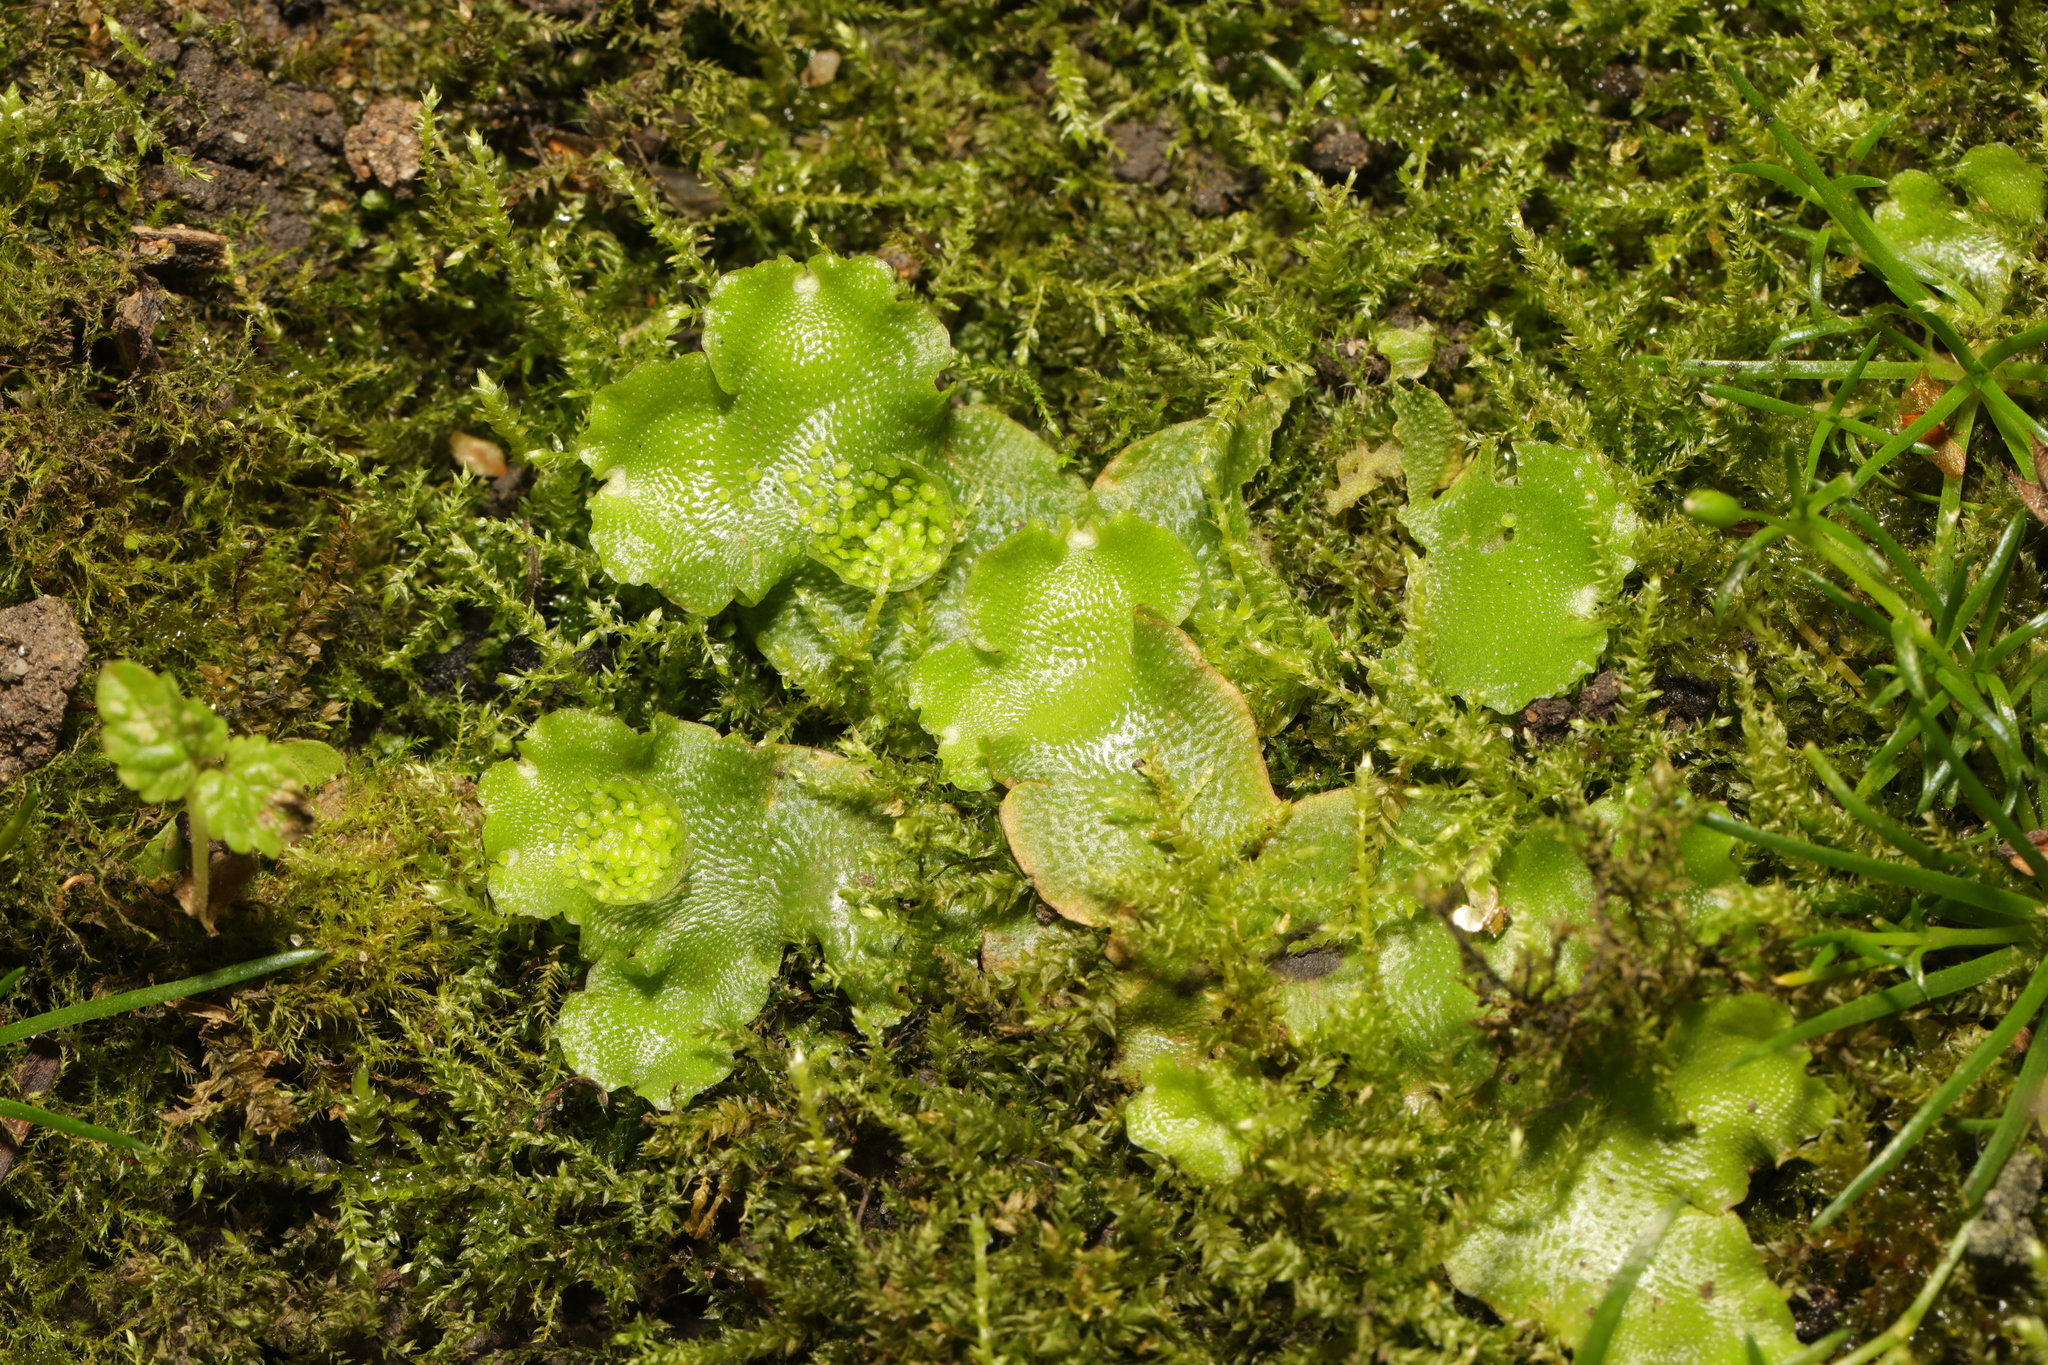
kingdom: Plantae
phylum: Marchantiophyta
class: Marchantiopsida
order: Lunulariales
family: Lunulariaceae
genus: Lunularia
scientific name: Lunularia cruciata
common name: Crescent-cup liverwort
